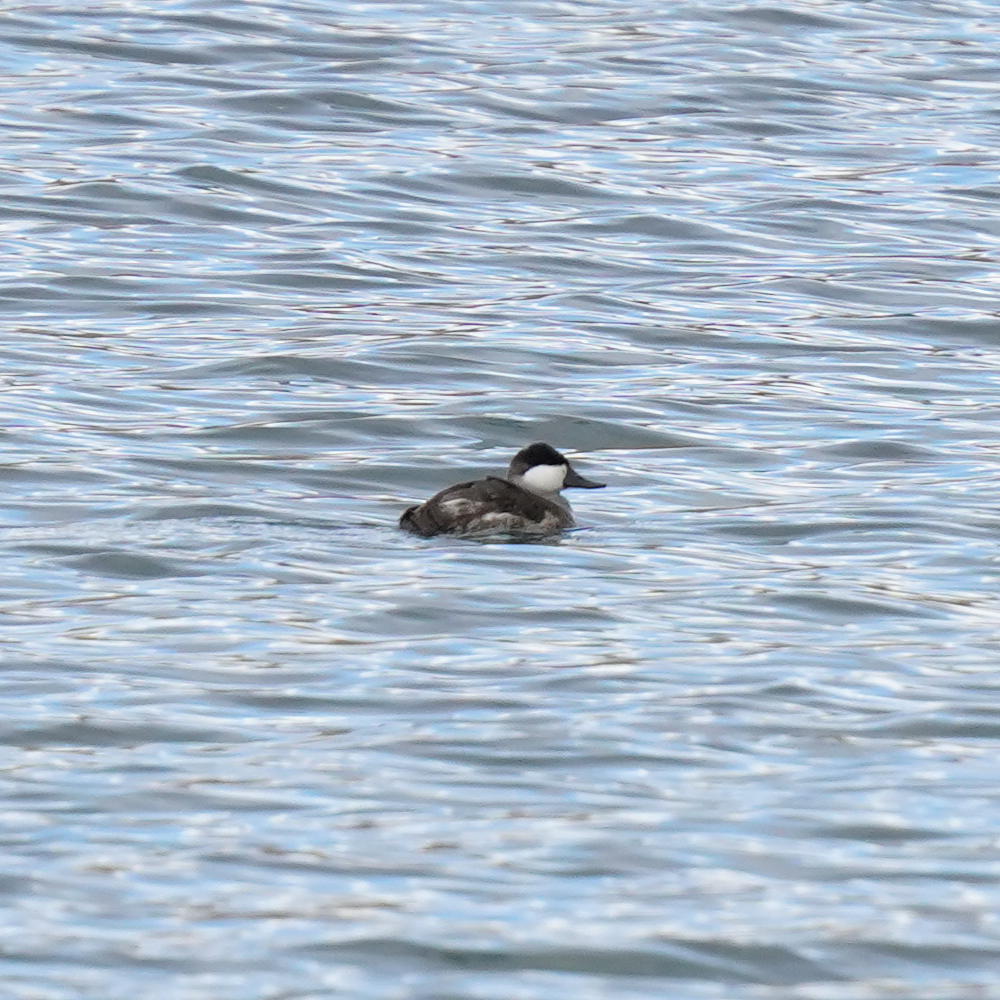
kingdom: Animalia
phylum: Chordata
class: Aves
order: Anseriformes
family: Anatidae
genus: Oxyura
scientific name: Oxyura jamaicensis
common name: Ruddy duck
